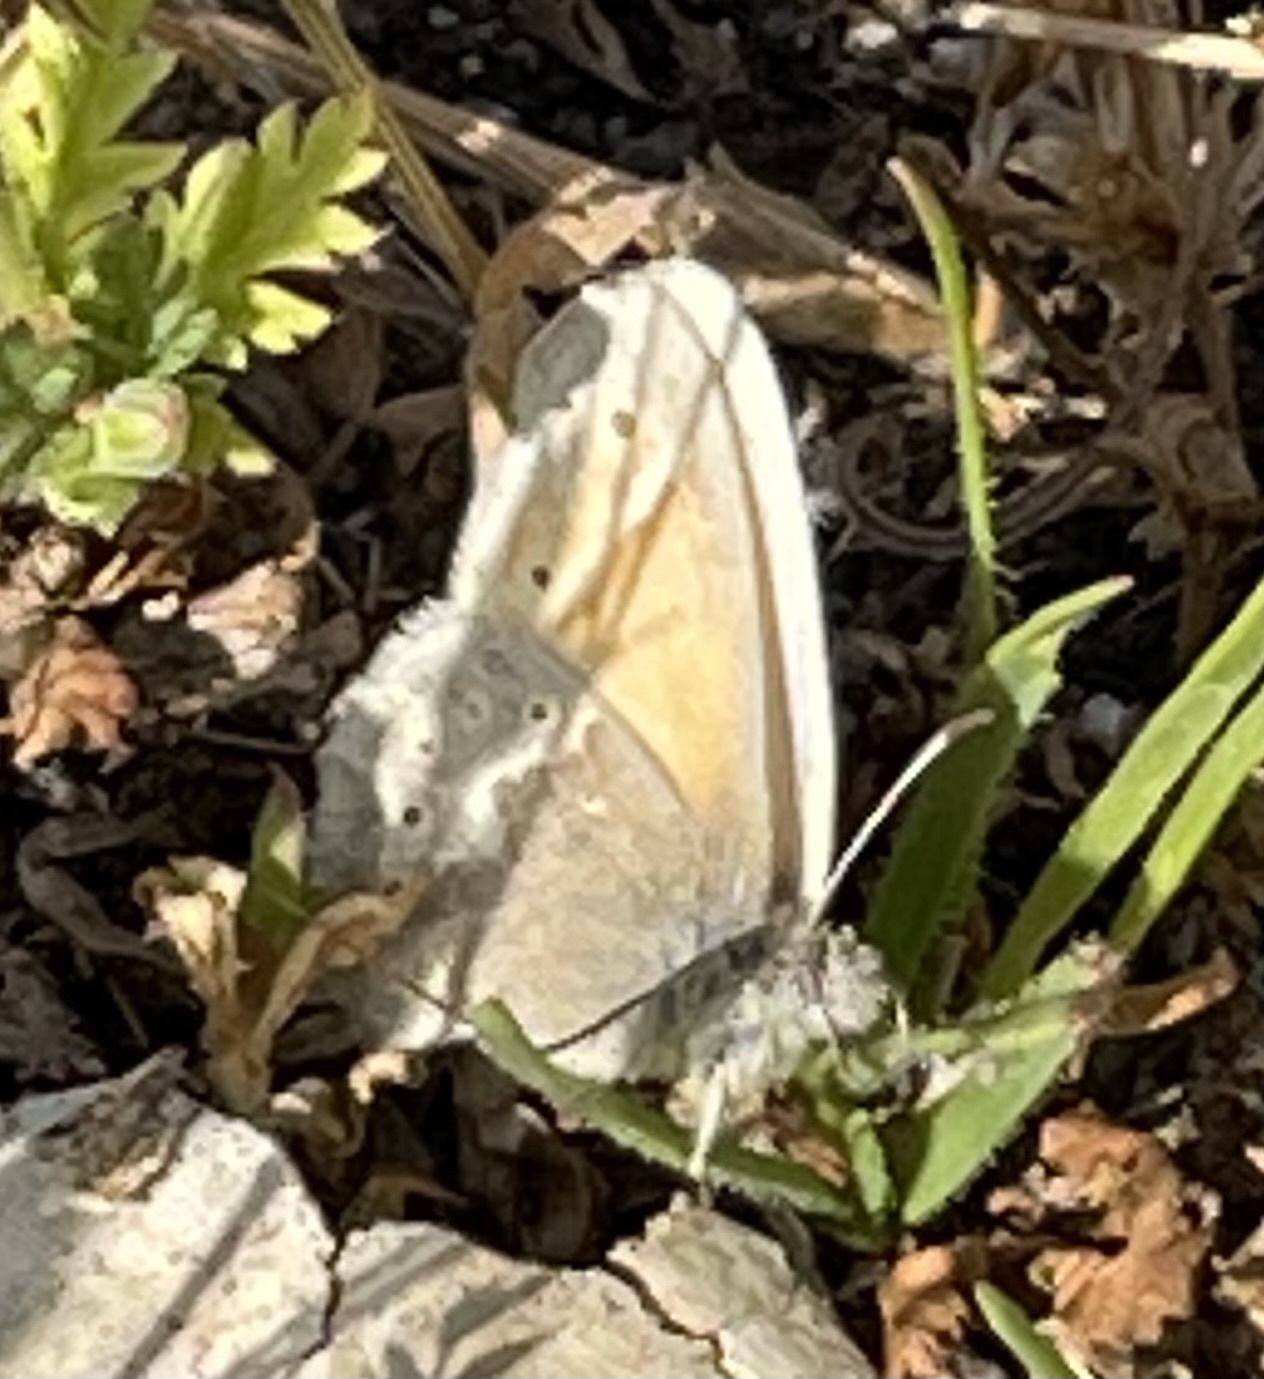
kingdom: Animalia
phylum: Arthropoda
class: Insecta
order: Lepidoptera
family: Nymphalidae
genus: Coenonympha
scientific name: Coenonympha california
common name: Common ringlet
